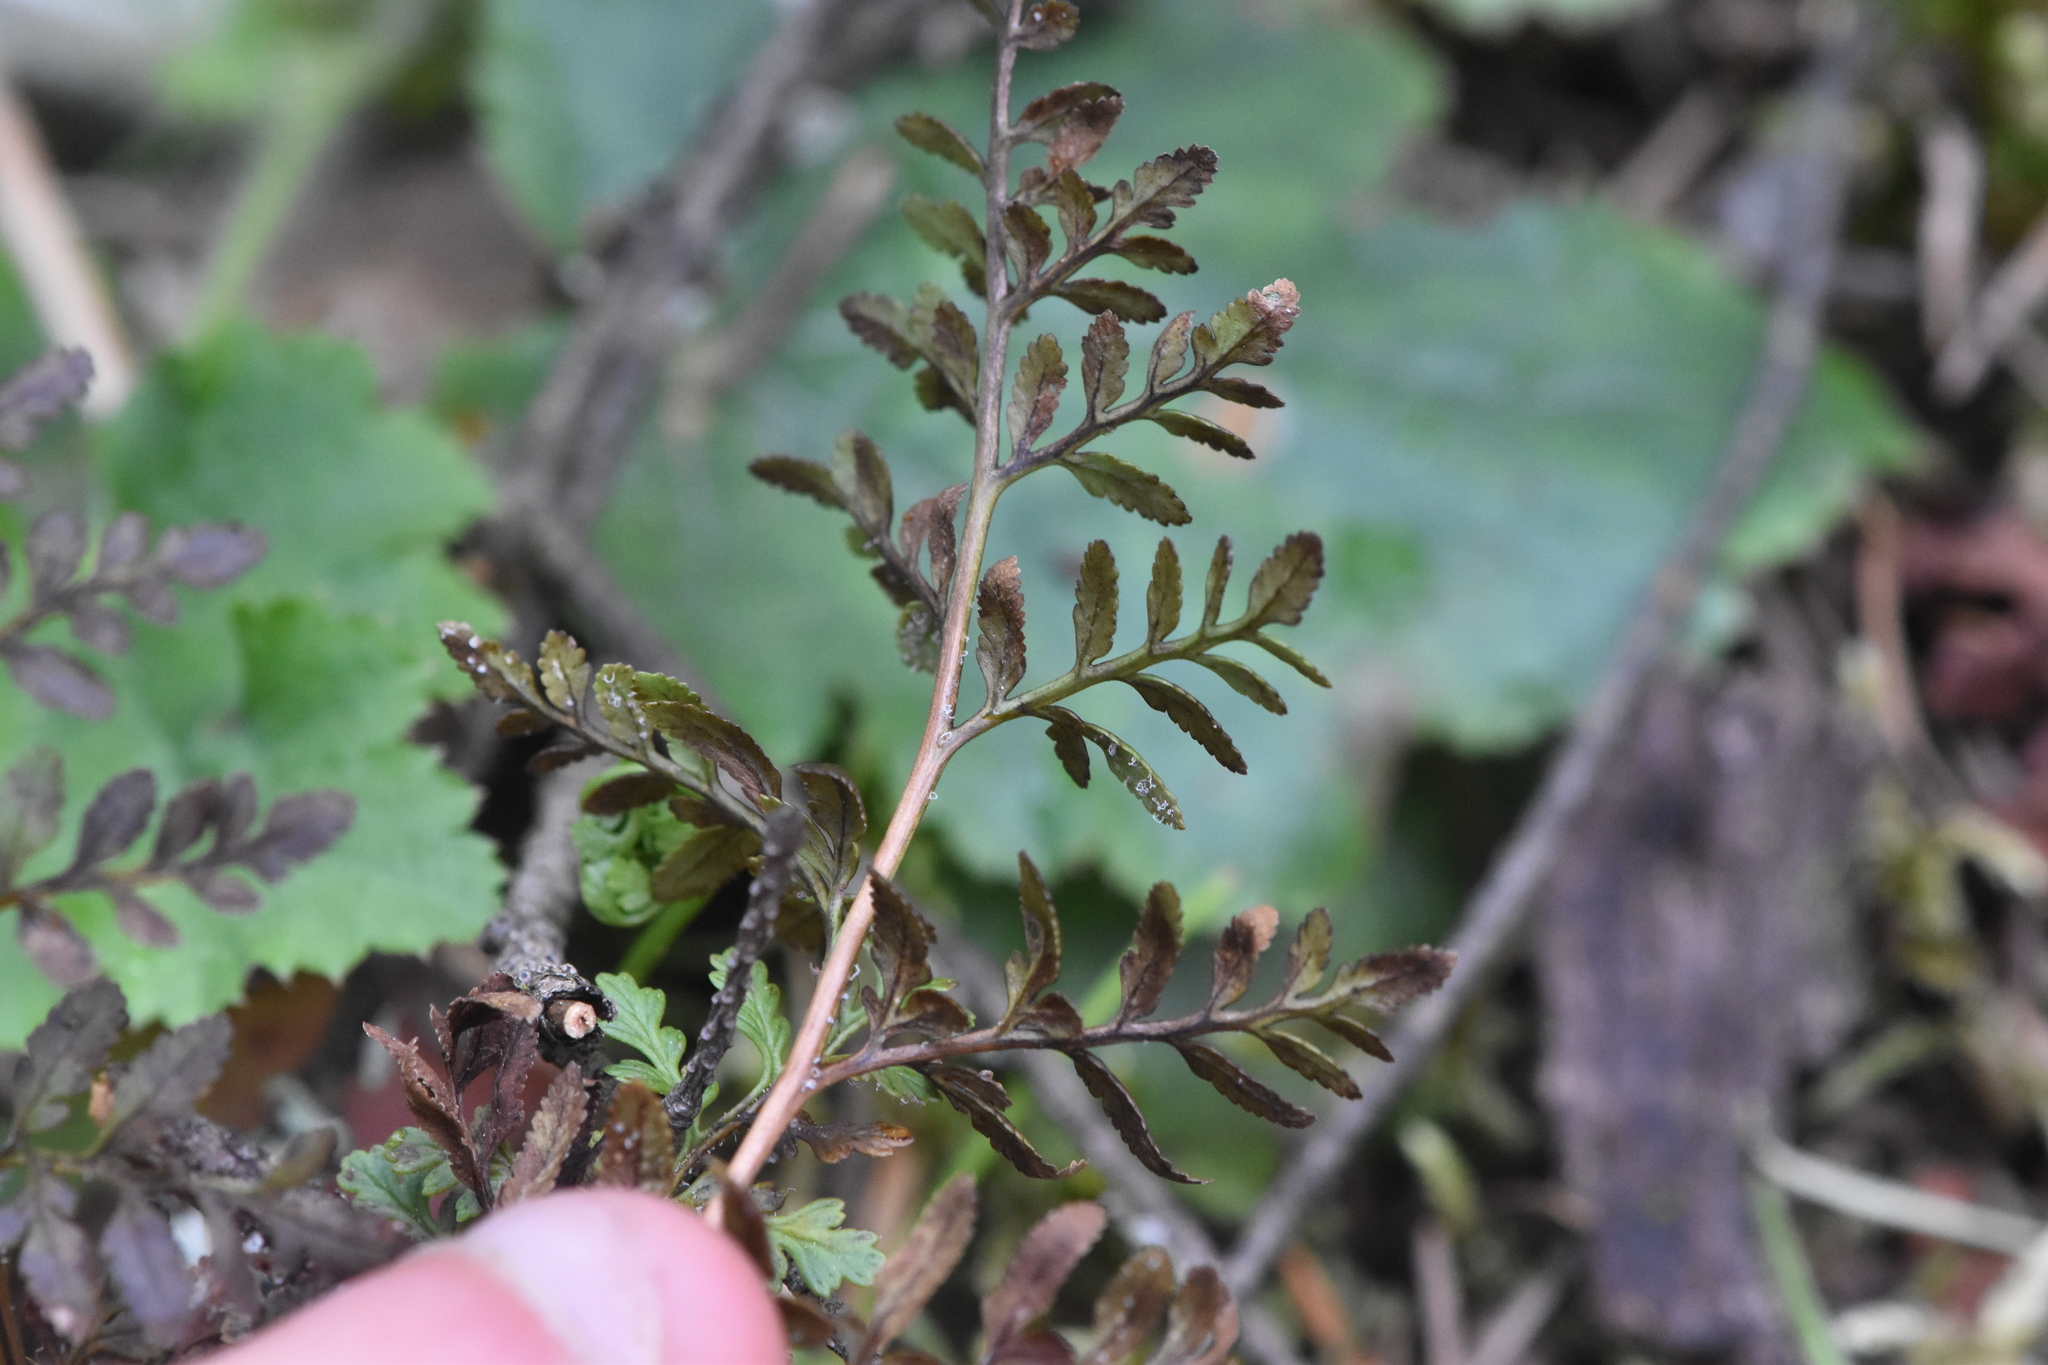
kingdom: Plantae
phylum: Tracheophyta
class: Polypodiopsida
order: Polypodiales
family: Pteridaceae
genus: Cryptogramma
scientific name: Cryptogramma acrostichoides
